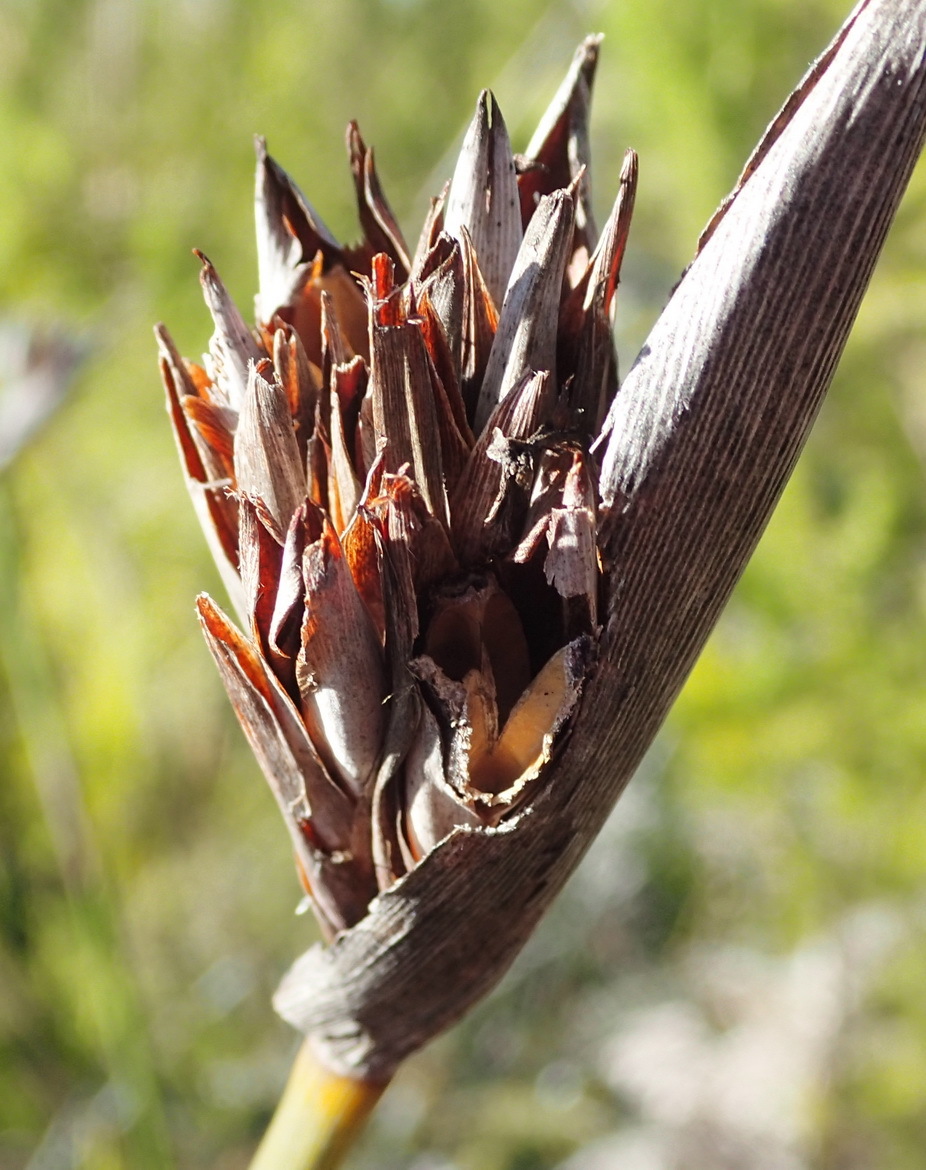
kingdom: Plantae
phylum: Tracheophyta
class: Liliopsida
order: Asparagales
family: Iridaceae
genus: Bobartia
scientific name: Bobartia macrospatha
